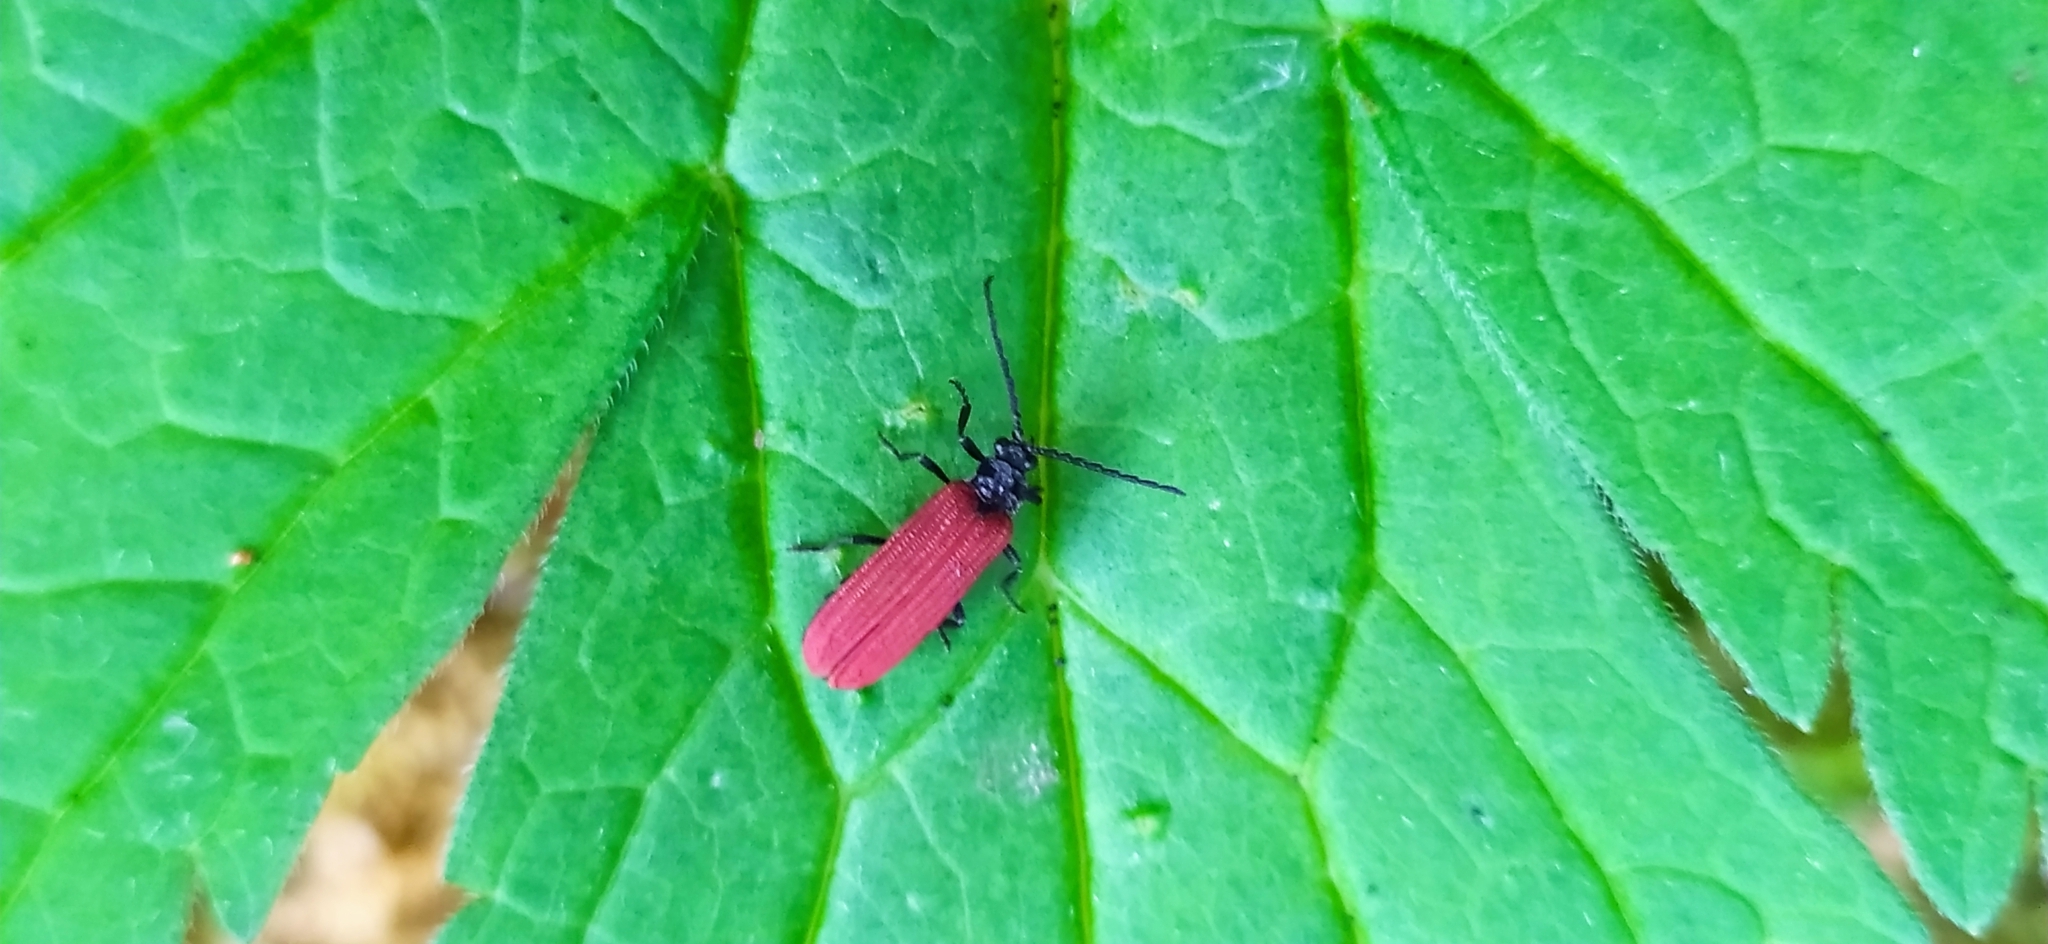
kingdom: Animalia
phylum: Arthropoda
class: Insecta
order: Coleoptera
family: Lycidae
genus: Pyropterus
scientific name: Pyropterus nigroruber
